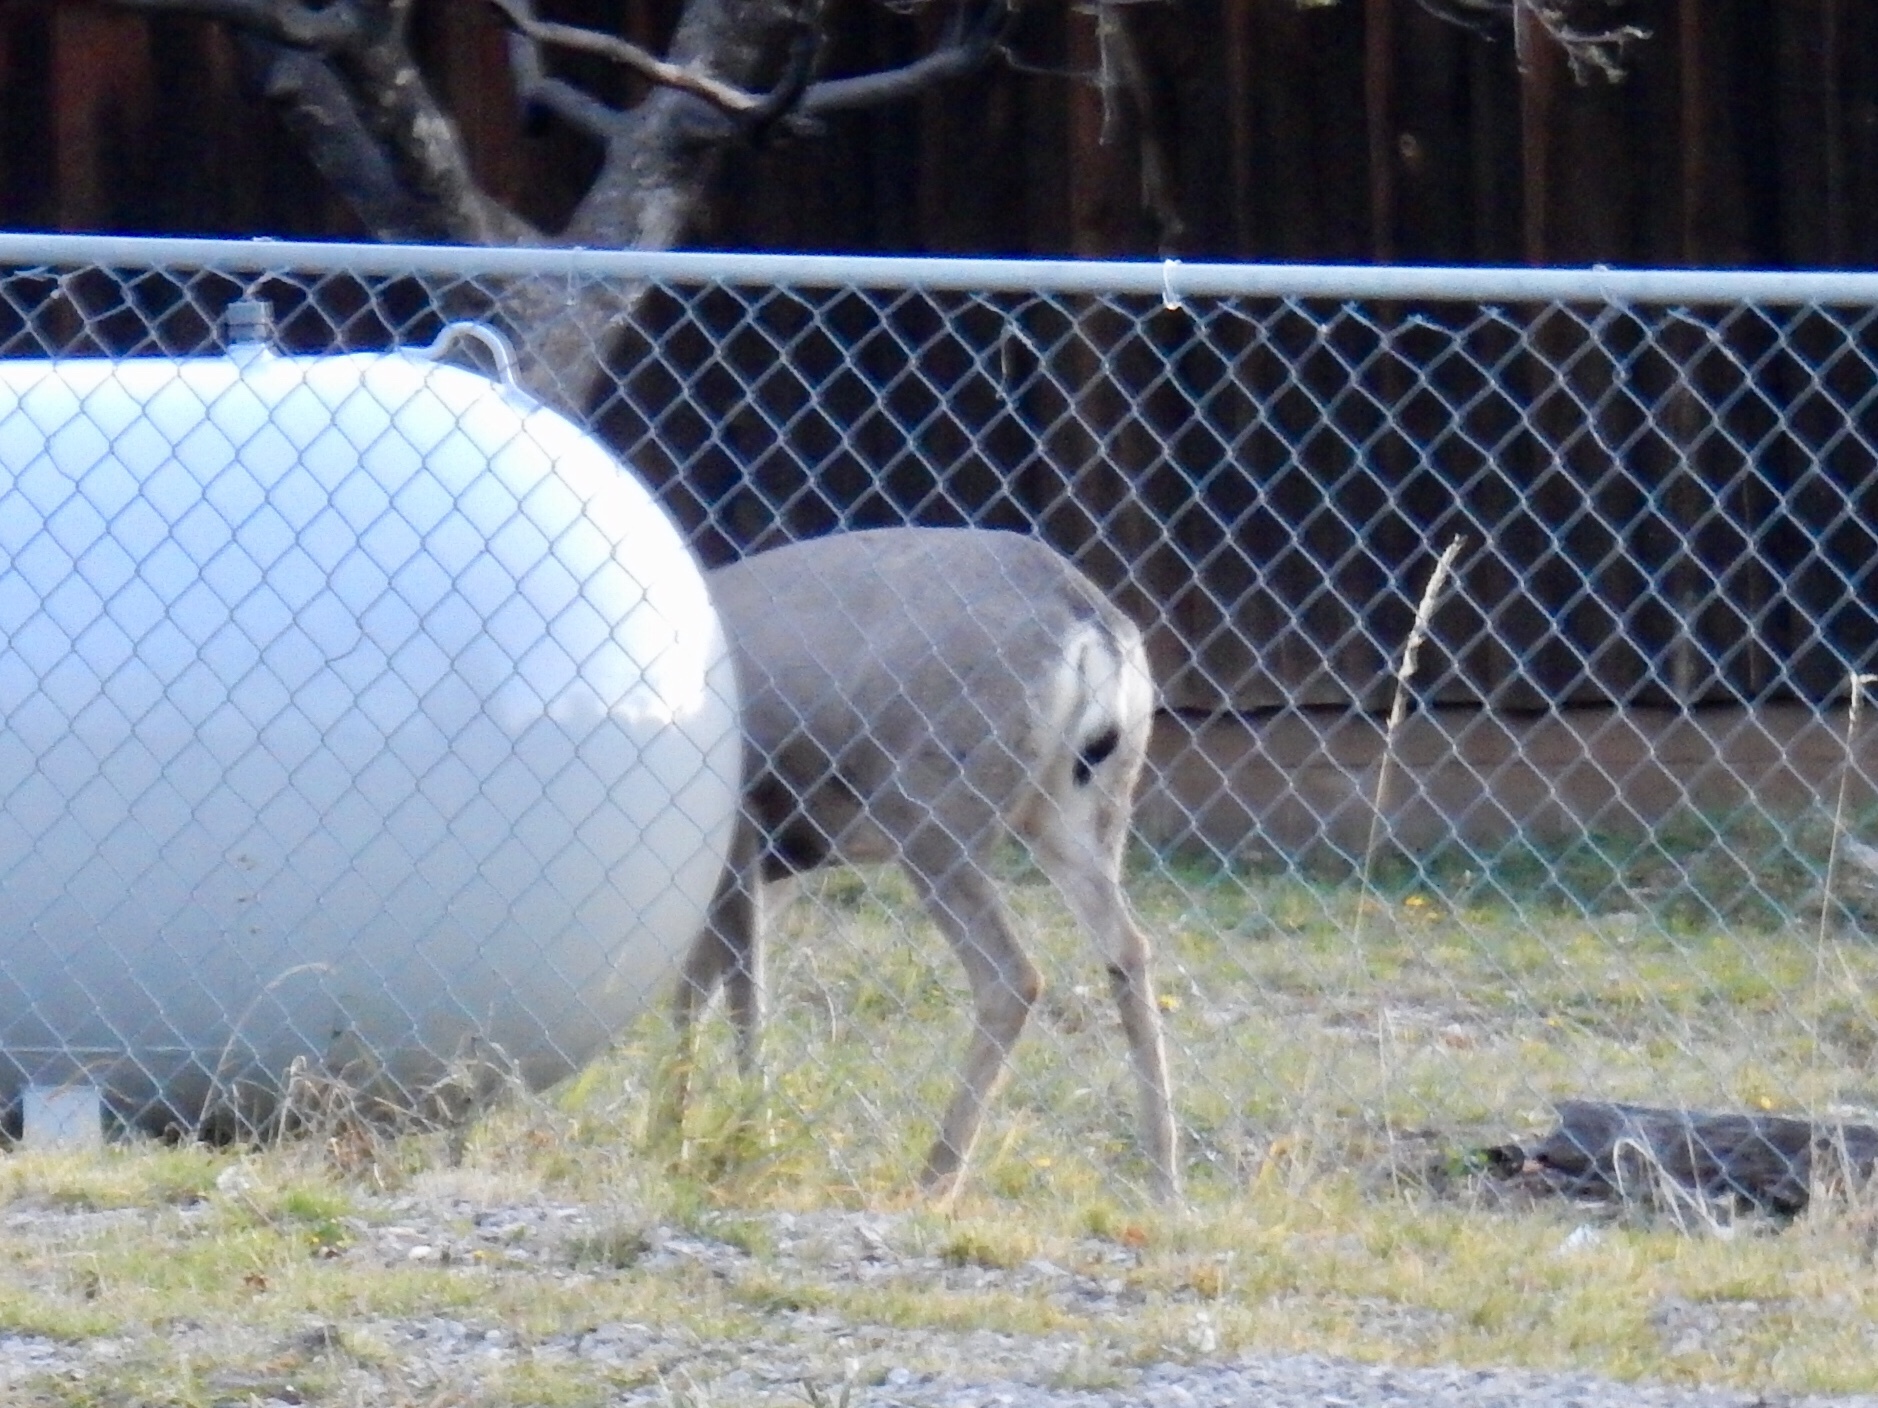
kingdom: Animalia
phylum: Chordata
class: Mammalia
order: Artiodactyla
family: Cervidae
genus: Odocoileus
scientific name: Odocoileus hemionus
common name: Mule deer
